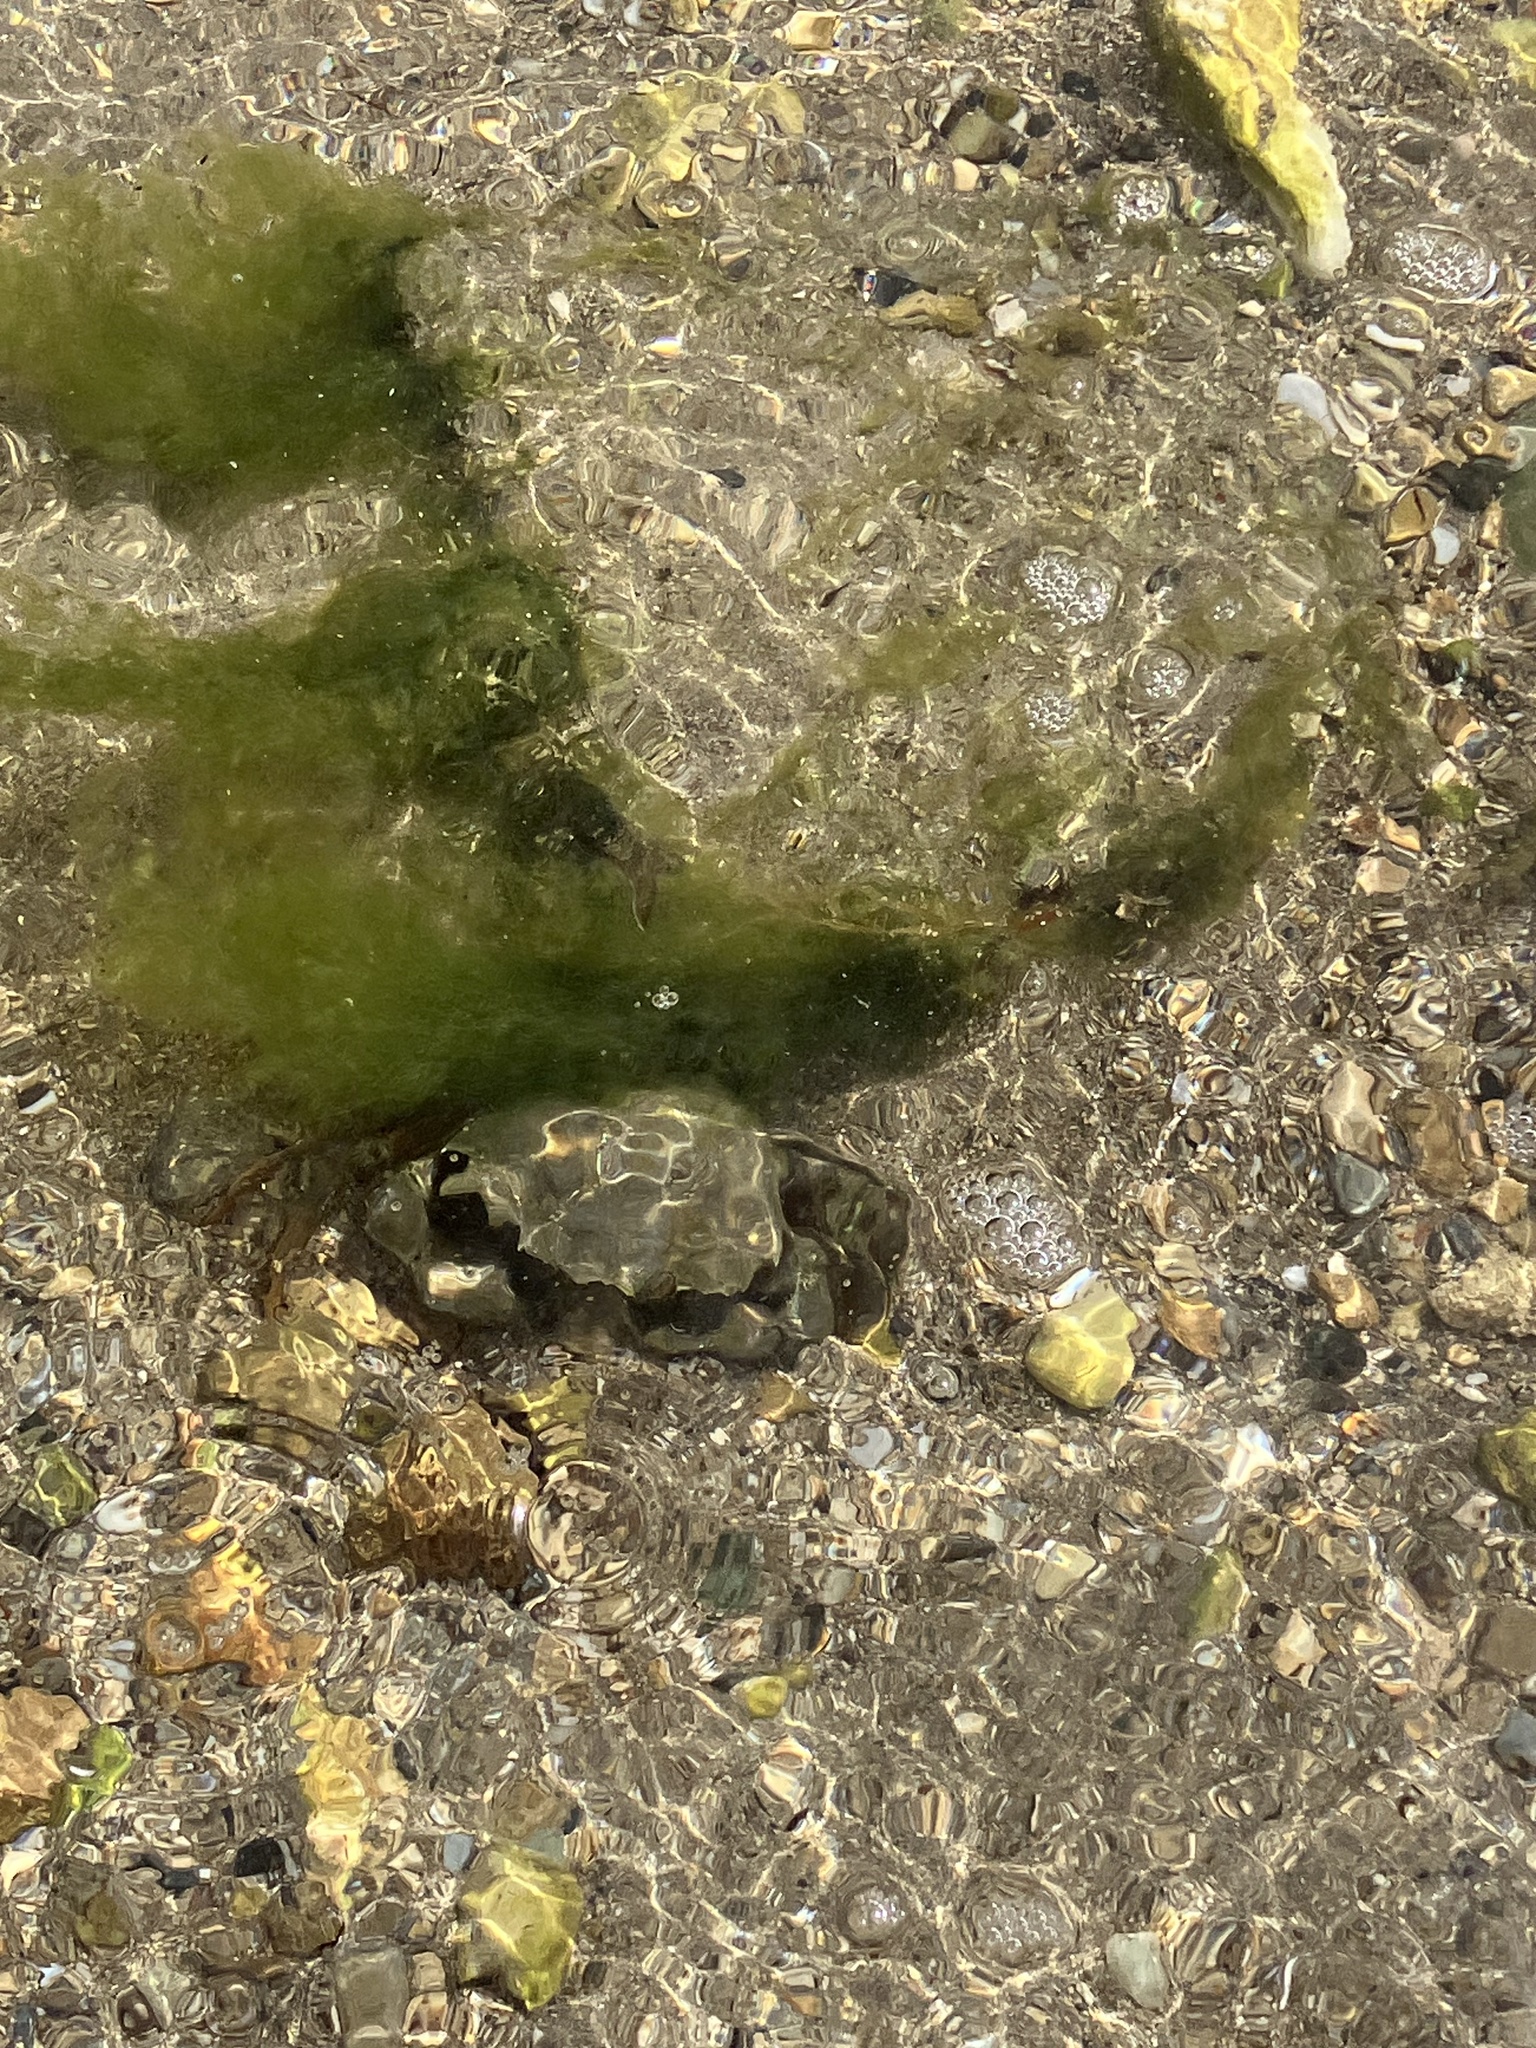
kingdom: Animalia
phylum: Arthropoda
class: Malacostraca
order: Decapoda
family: Carcinidae
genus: Carcinus
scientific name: Carcinus aestuarii
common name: Mediterranean green crab
